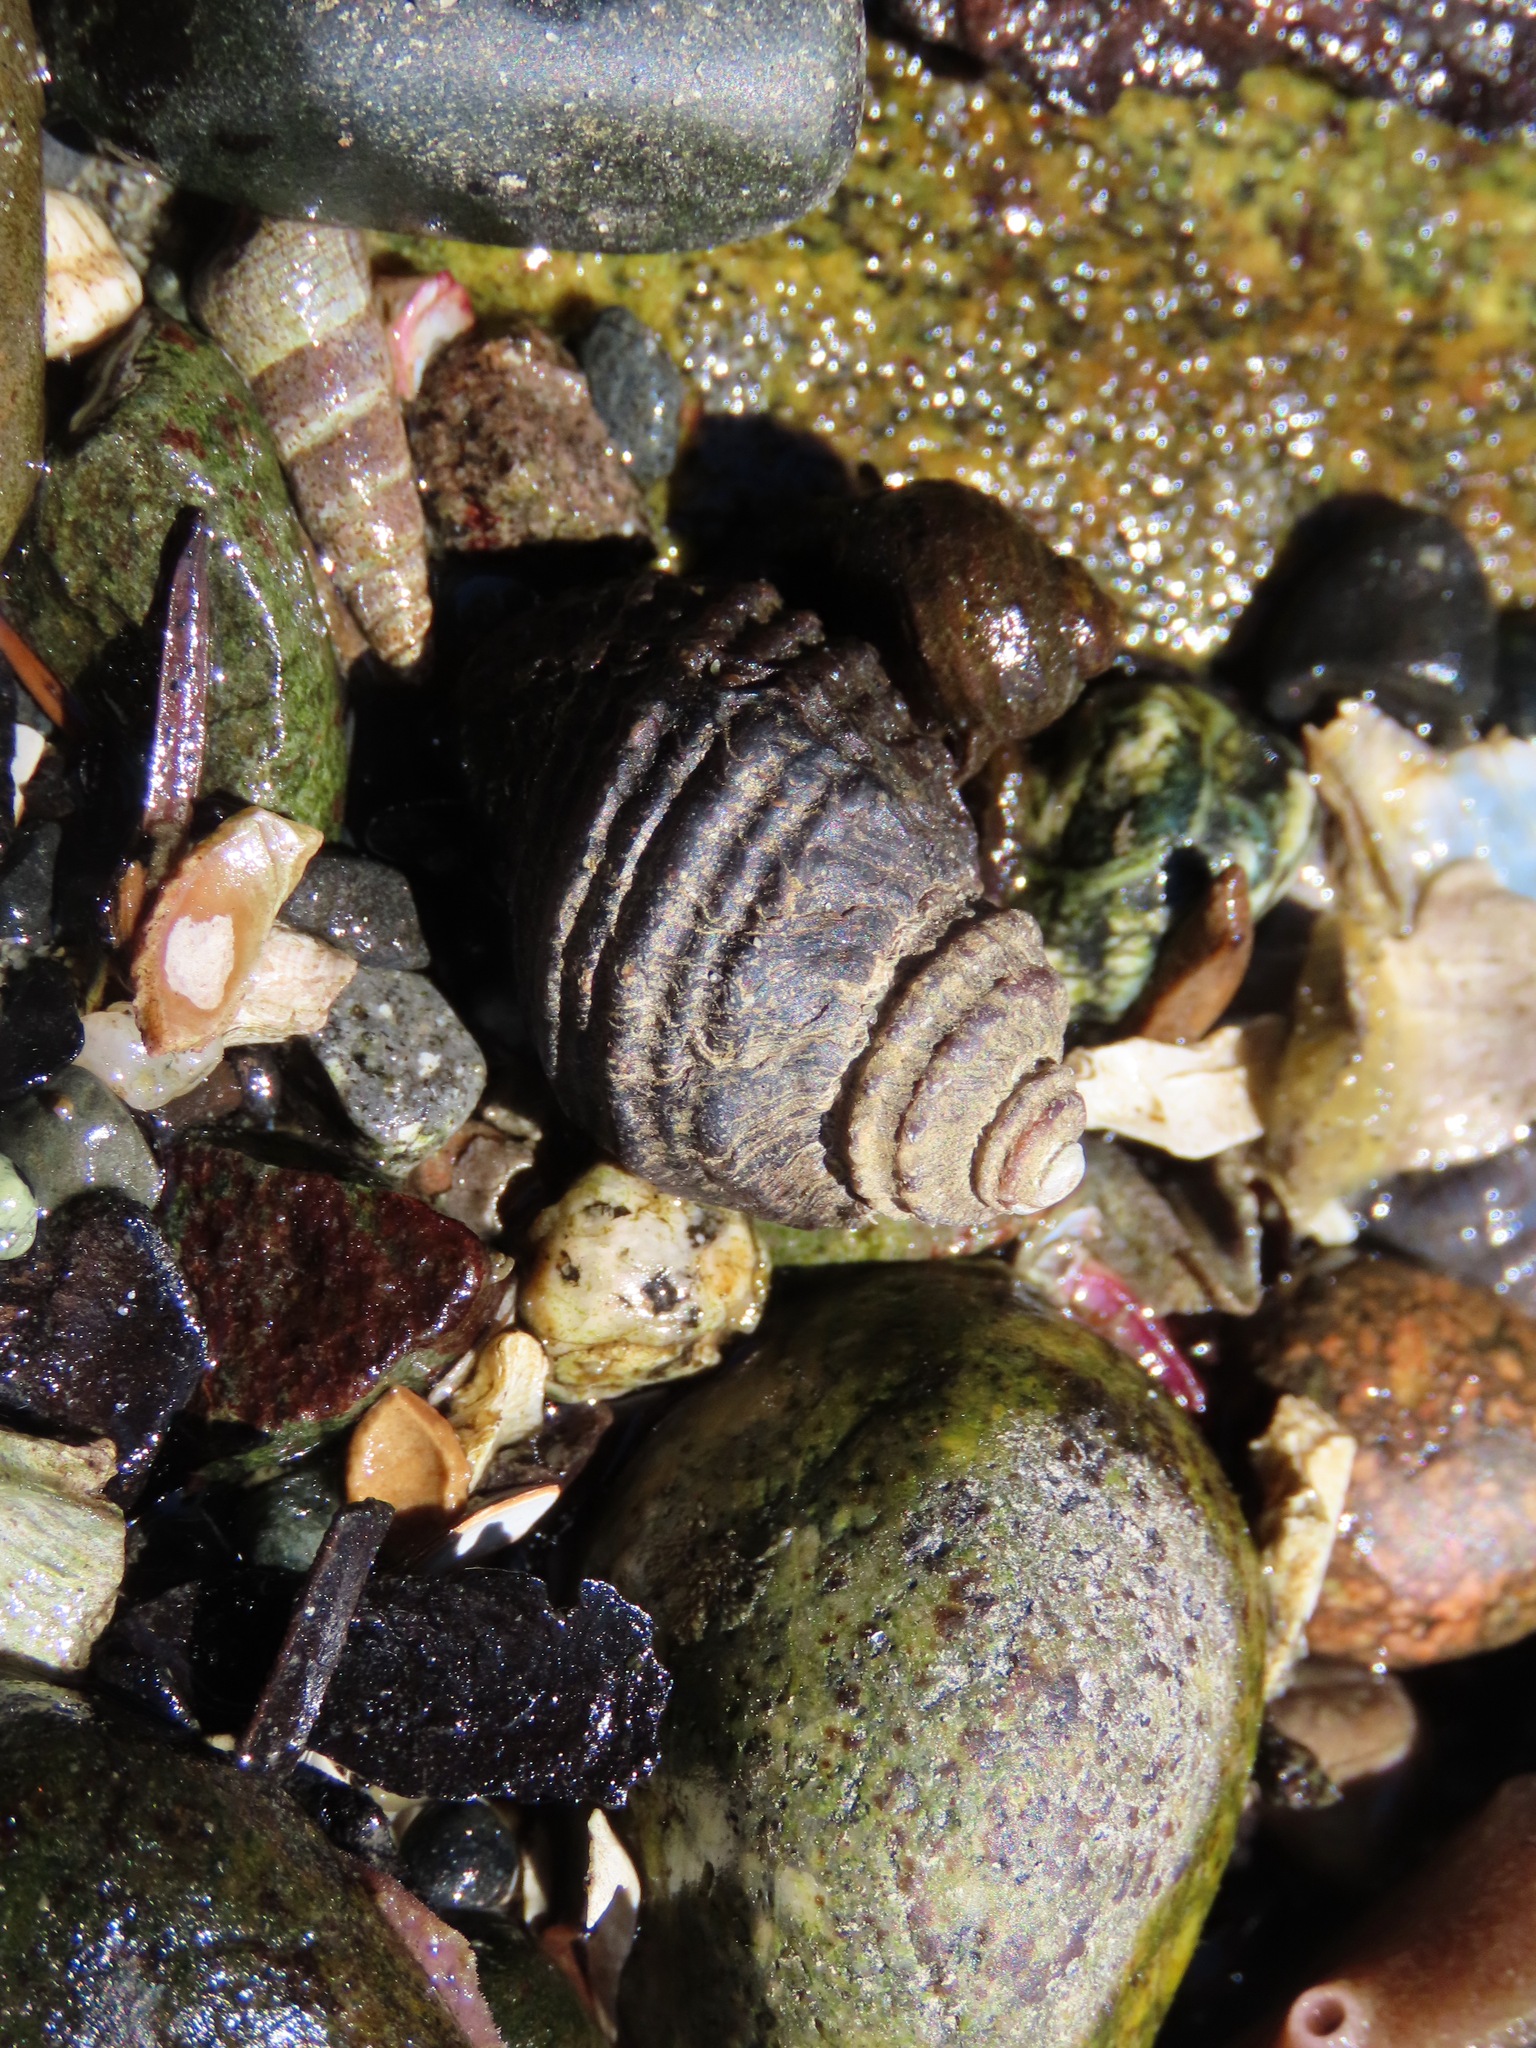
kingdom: Animalia
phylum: Mollusca
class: Gastropoda
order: Neogastropoda
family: Muricidae
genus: Nucella
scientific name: Nucella ostrina
